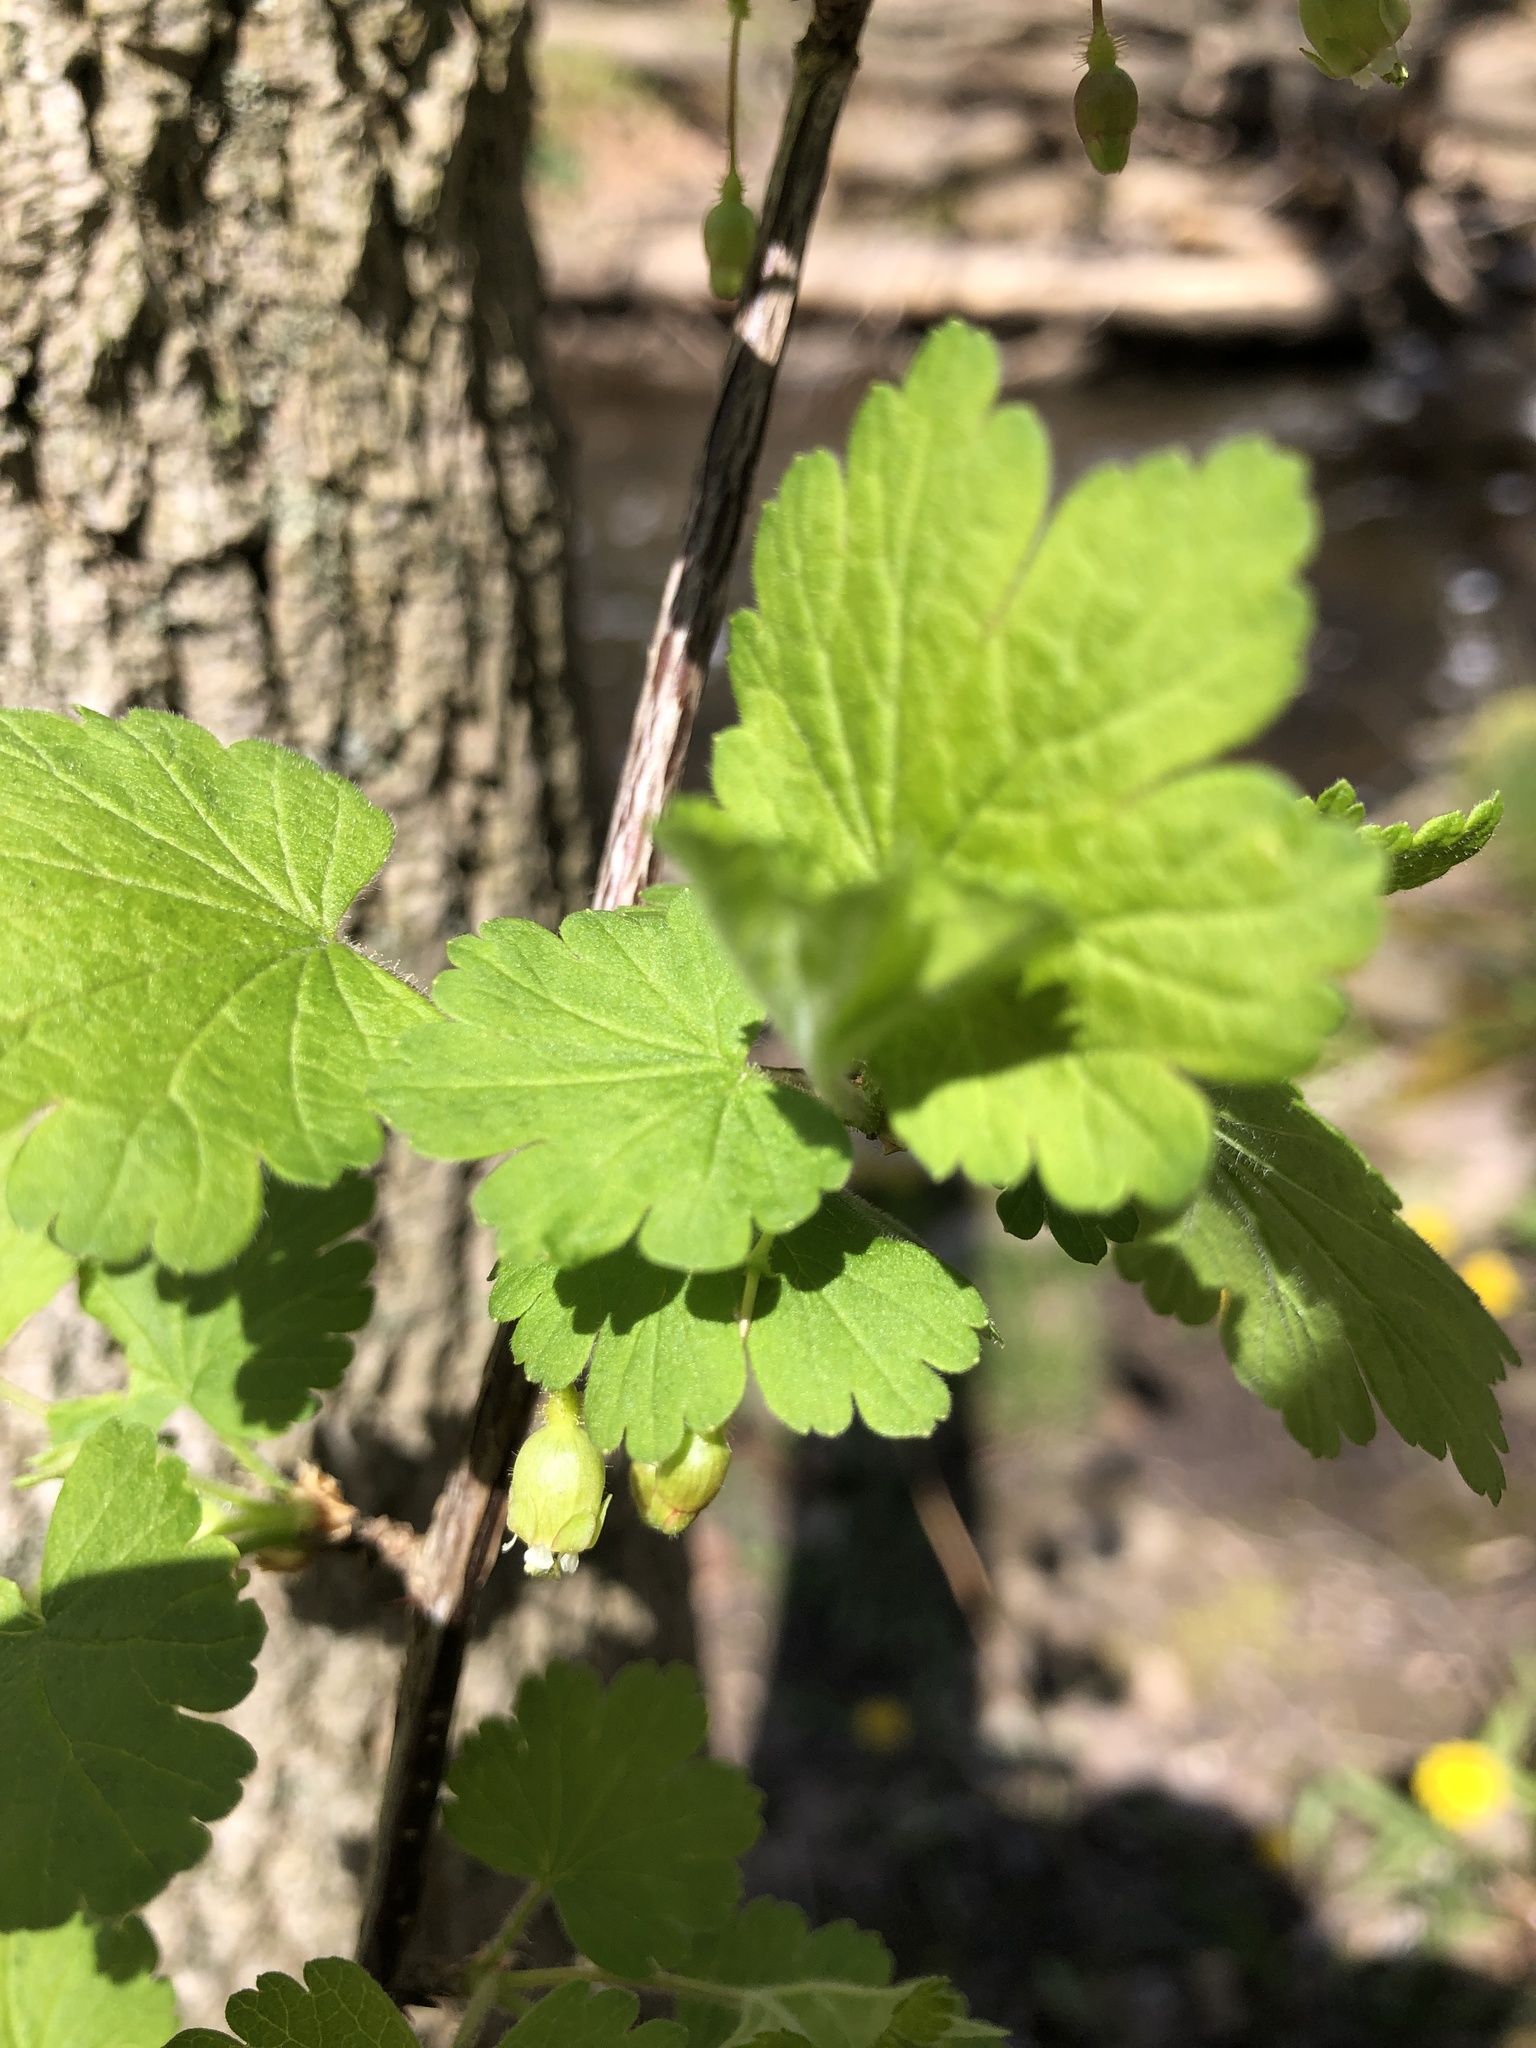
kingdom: Plantae
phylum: Tracheophyta
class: Magnoliopsida
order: Saxifragales
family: Grossulariaceae
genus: Ribes
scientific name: Ribes cynosbati
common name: American gooseberry
